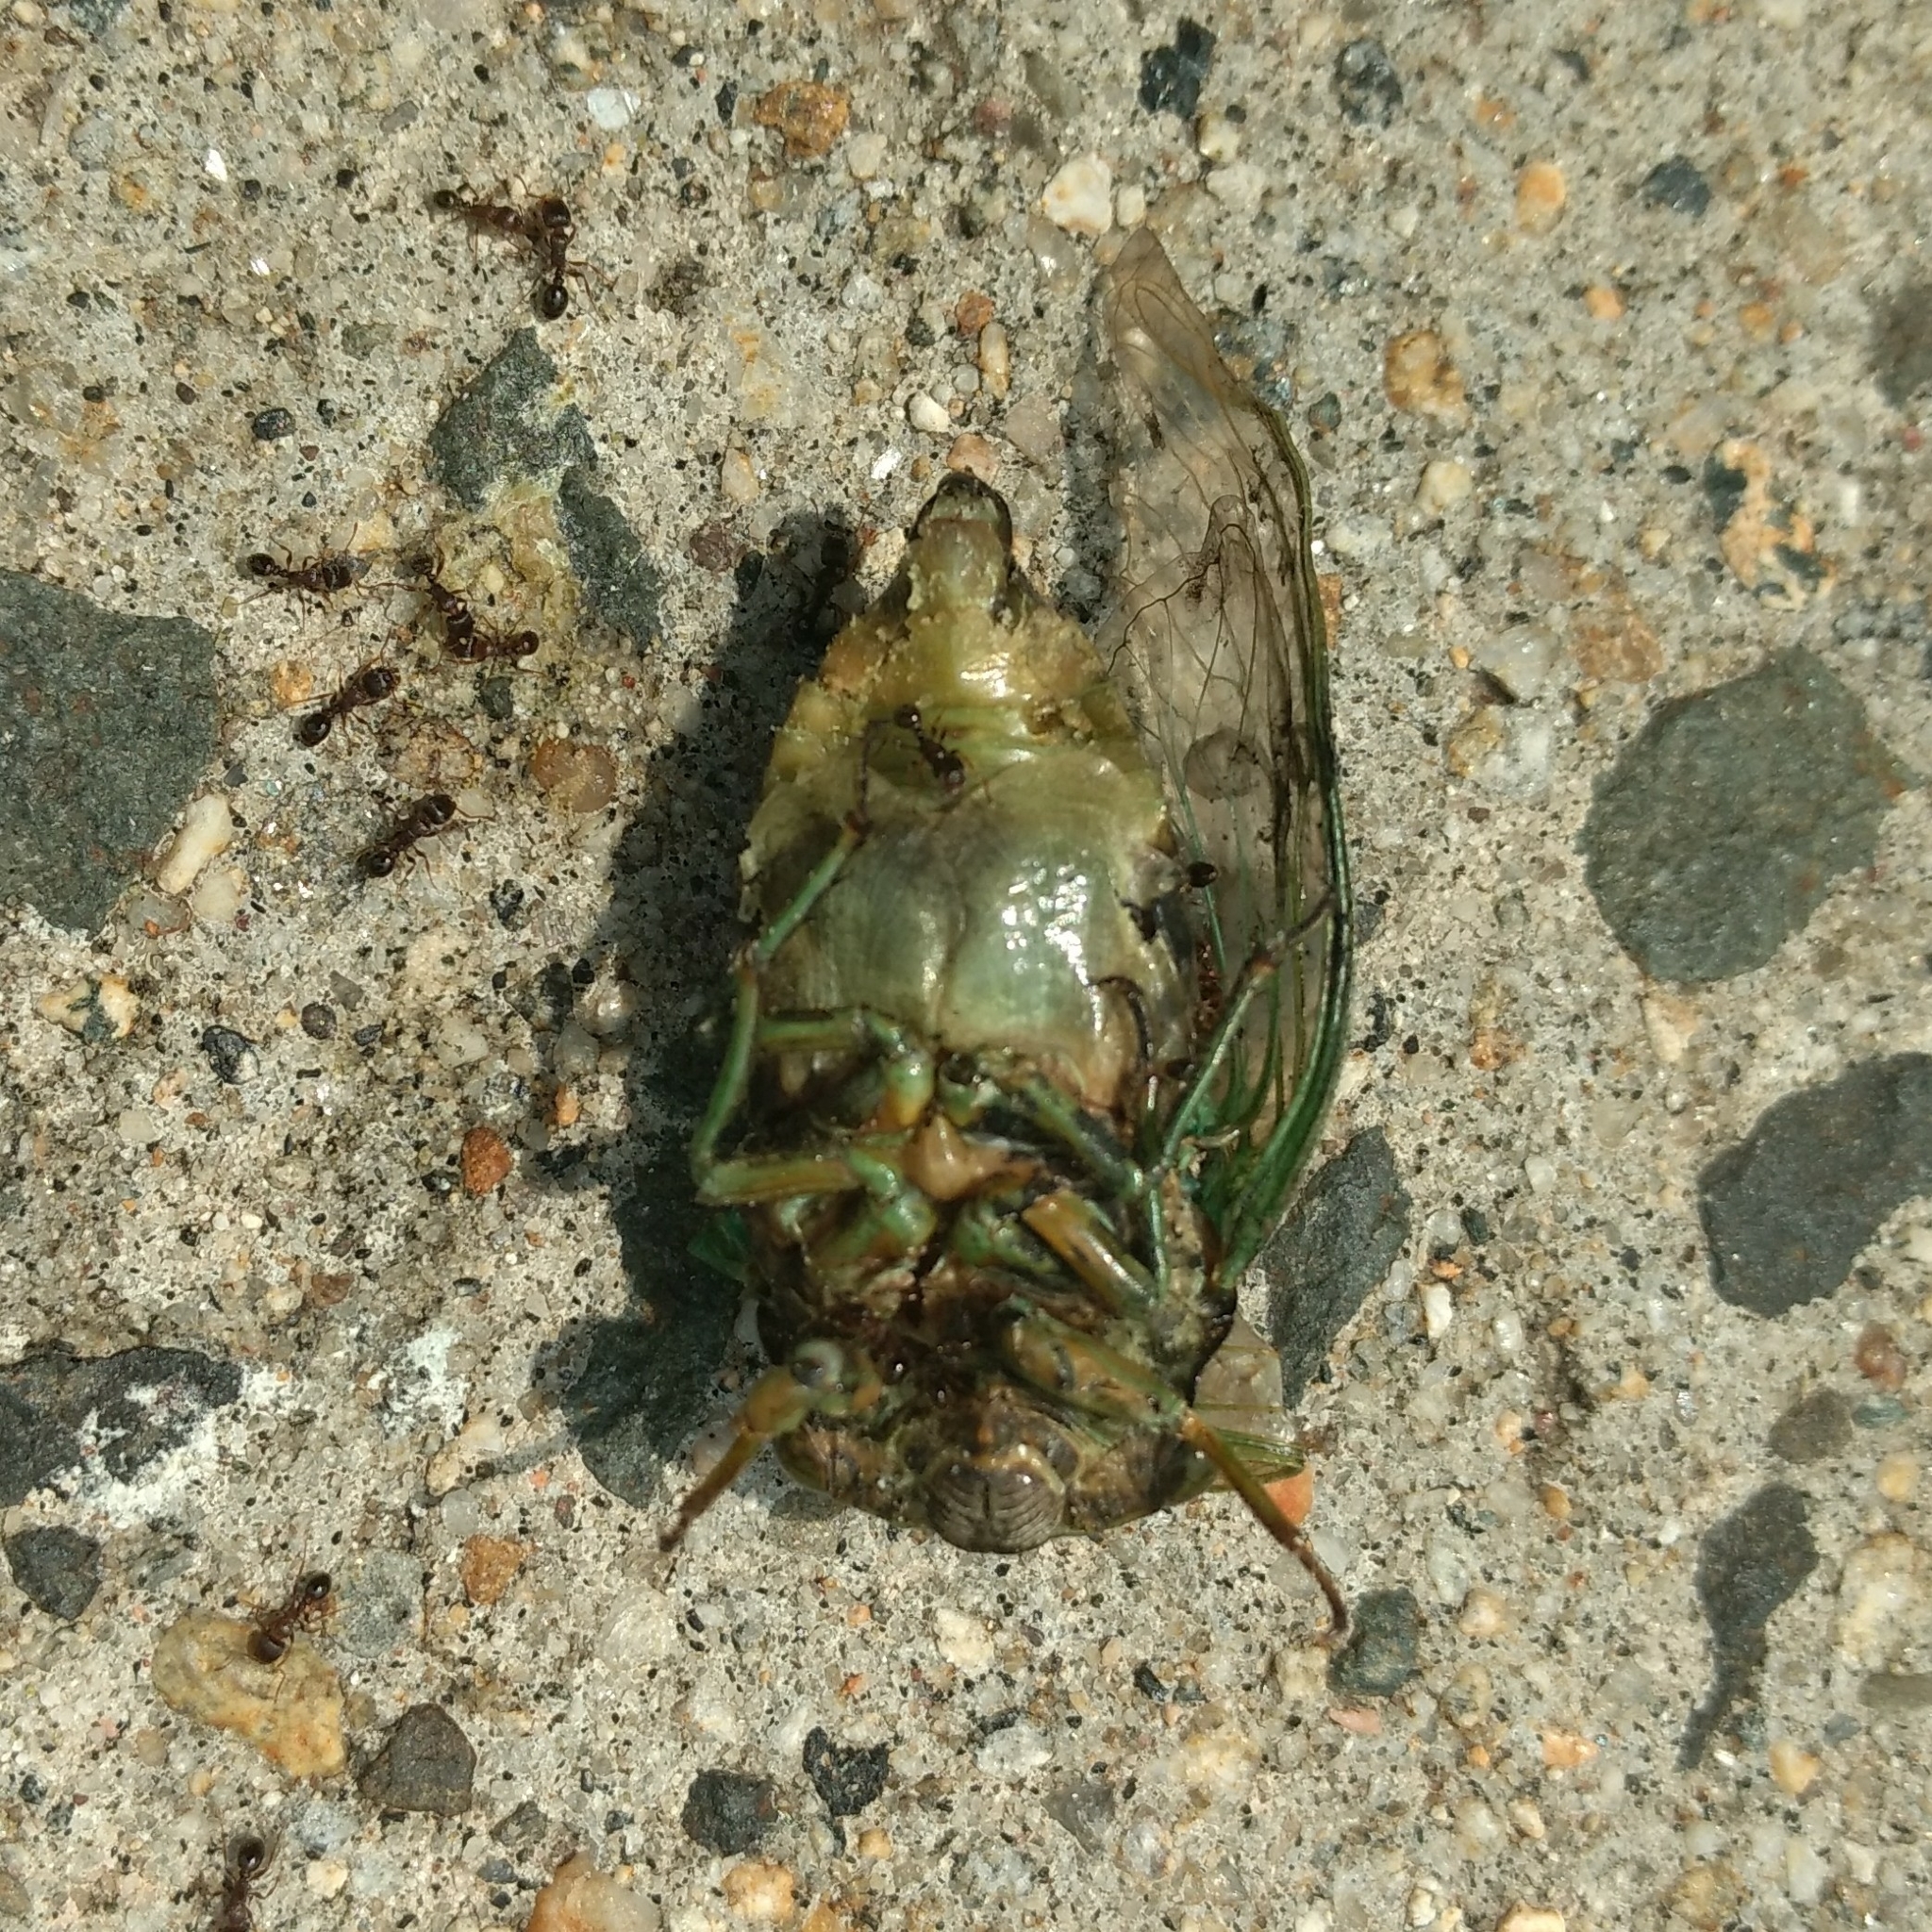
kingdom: Animalia
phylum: Arthropoda
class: Insecta
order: Hemiptera
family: Cicadidae
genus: Neotibicen
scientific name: Neotibicen tibicen
